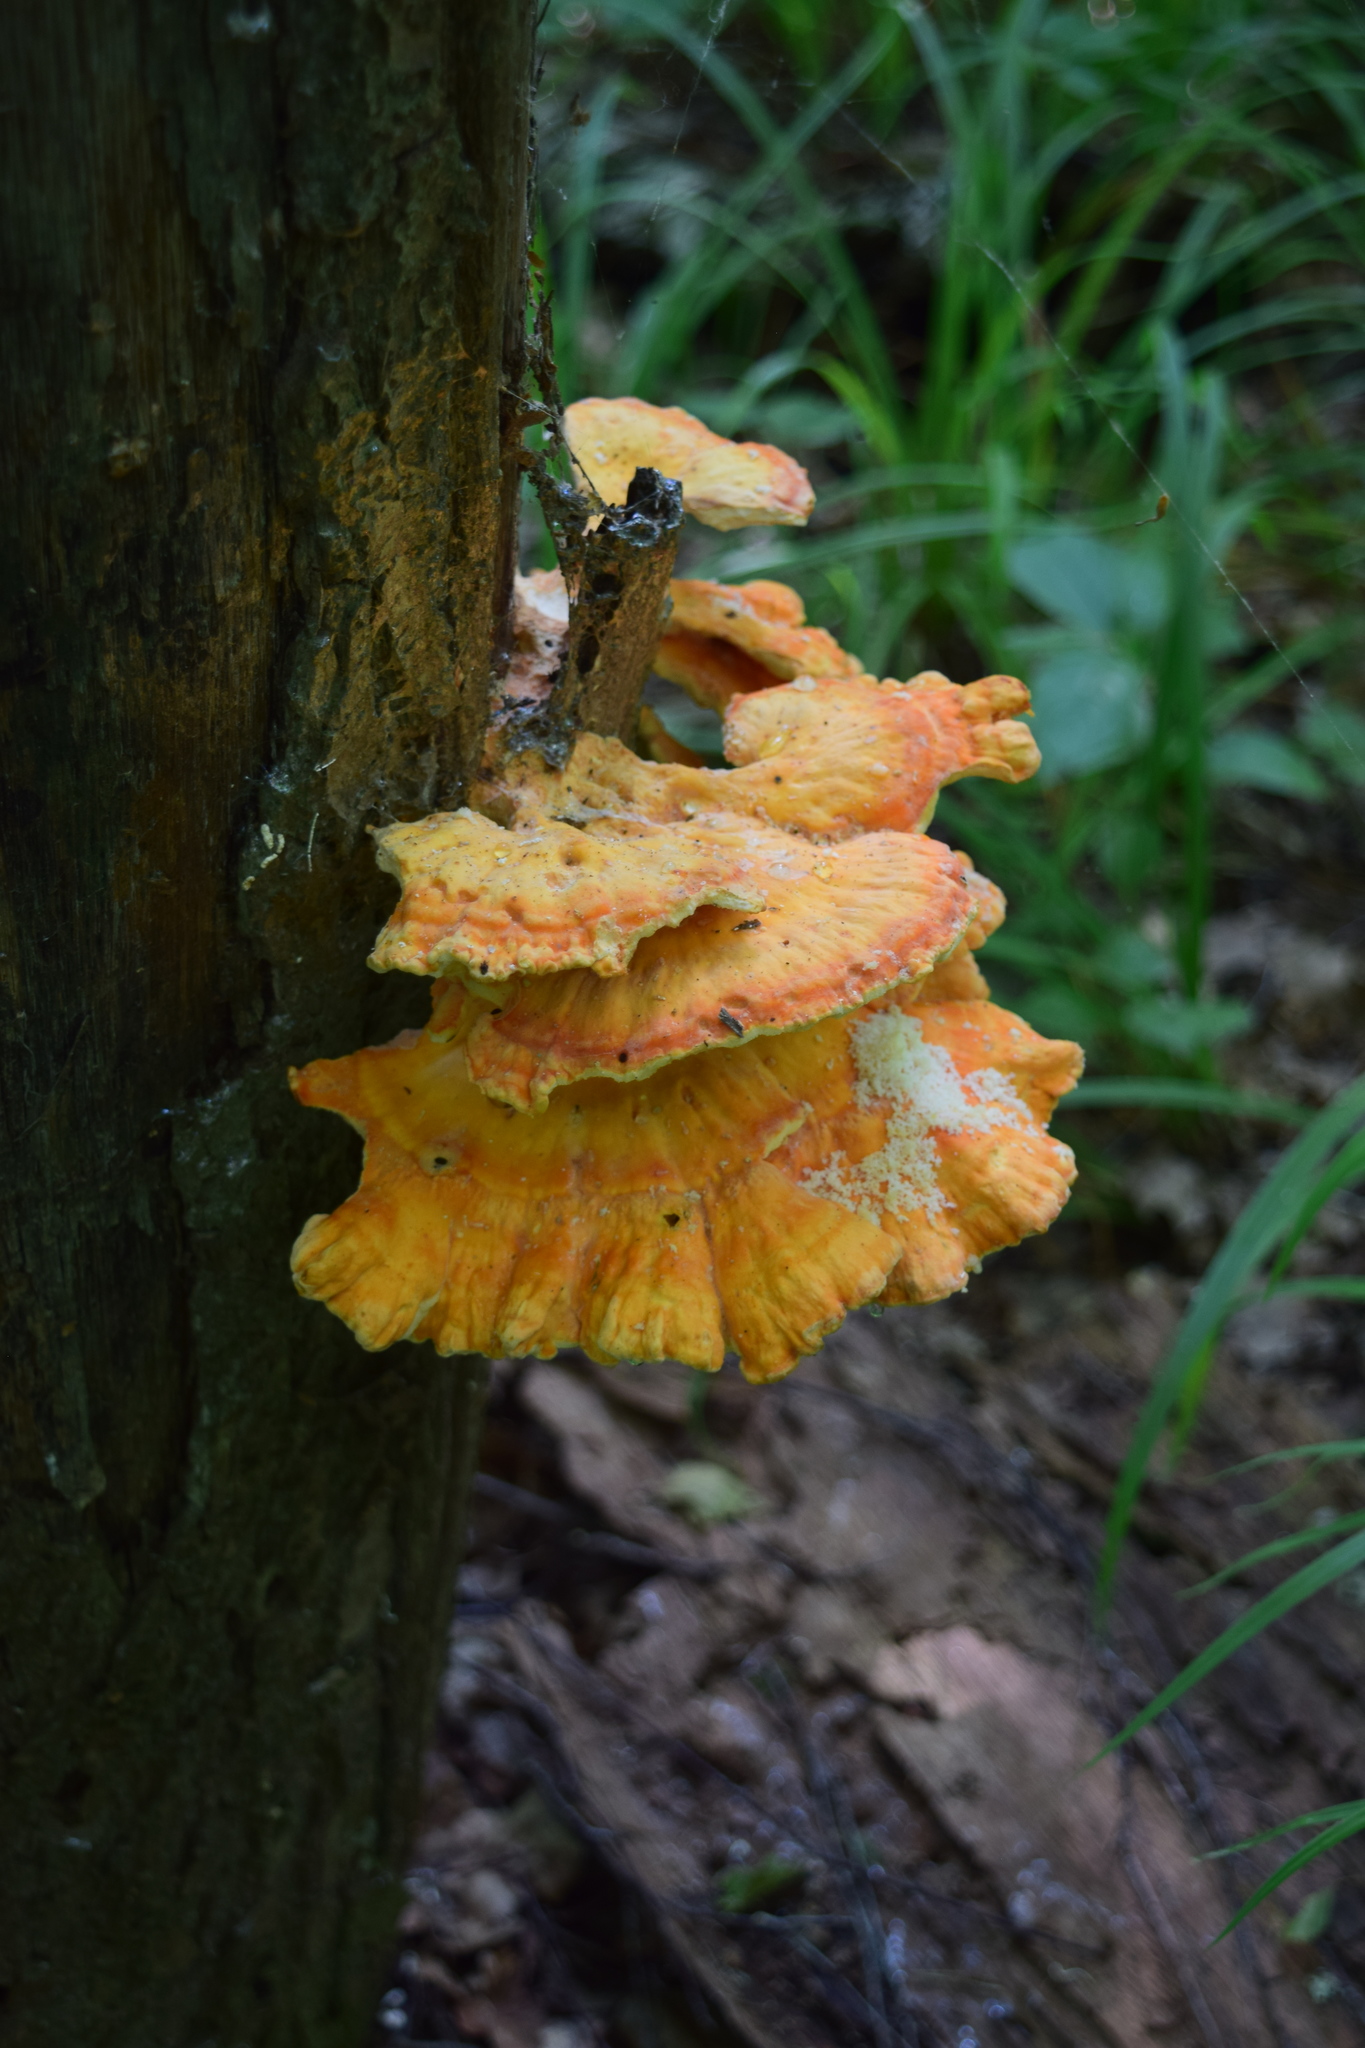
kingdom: Fungi
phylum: Basidiomycota
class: Agaricomycetes
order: Polyporales
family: Laetiporaceae
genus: Laetiporus
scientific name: Laetiporus sulphureus
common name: Chicken of the woods
